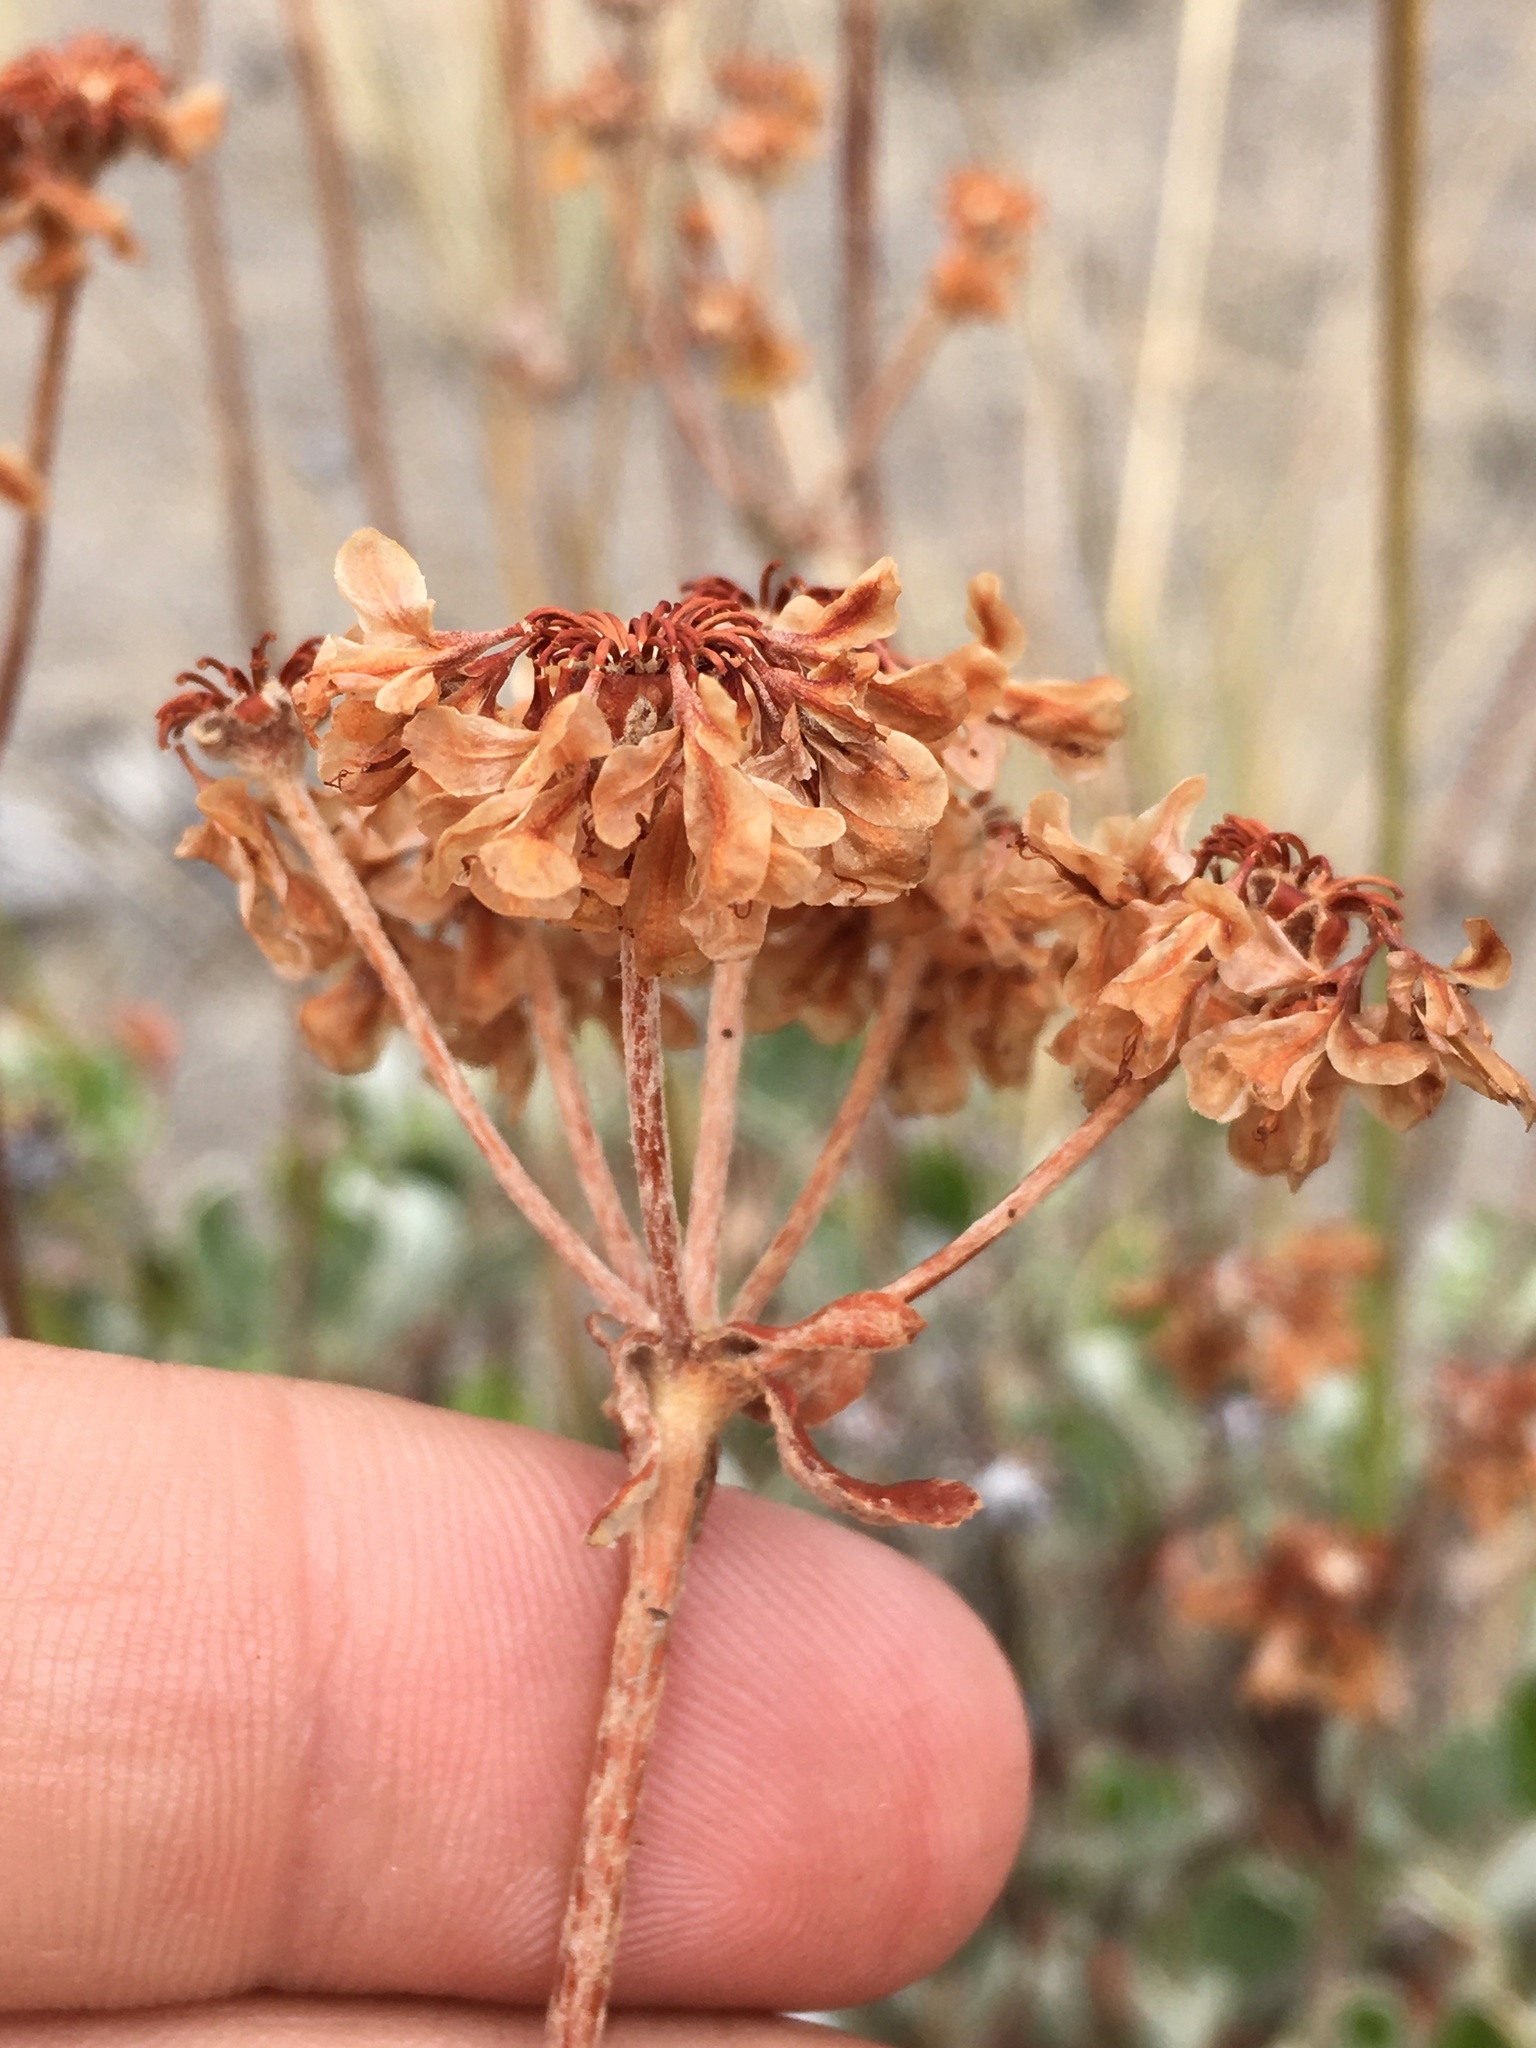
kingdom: Plantae
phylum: Tracheophyta
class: Magnoliopsida
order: Caryophyllales
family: Polygonaceae
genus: Eriogonum
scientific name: Eriogonum umbellatum
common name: Sulfur-buckwheat
